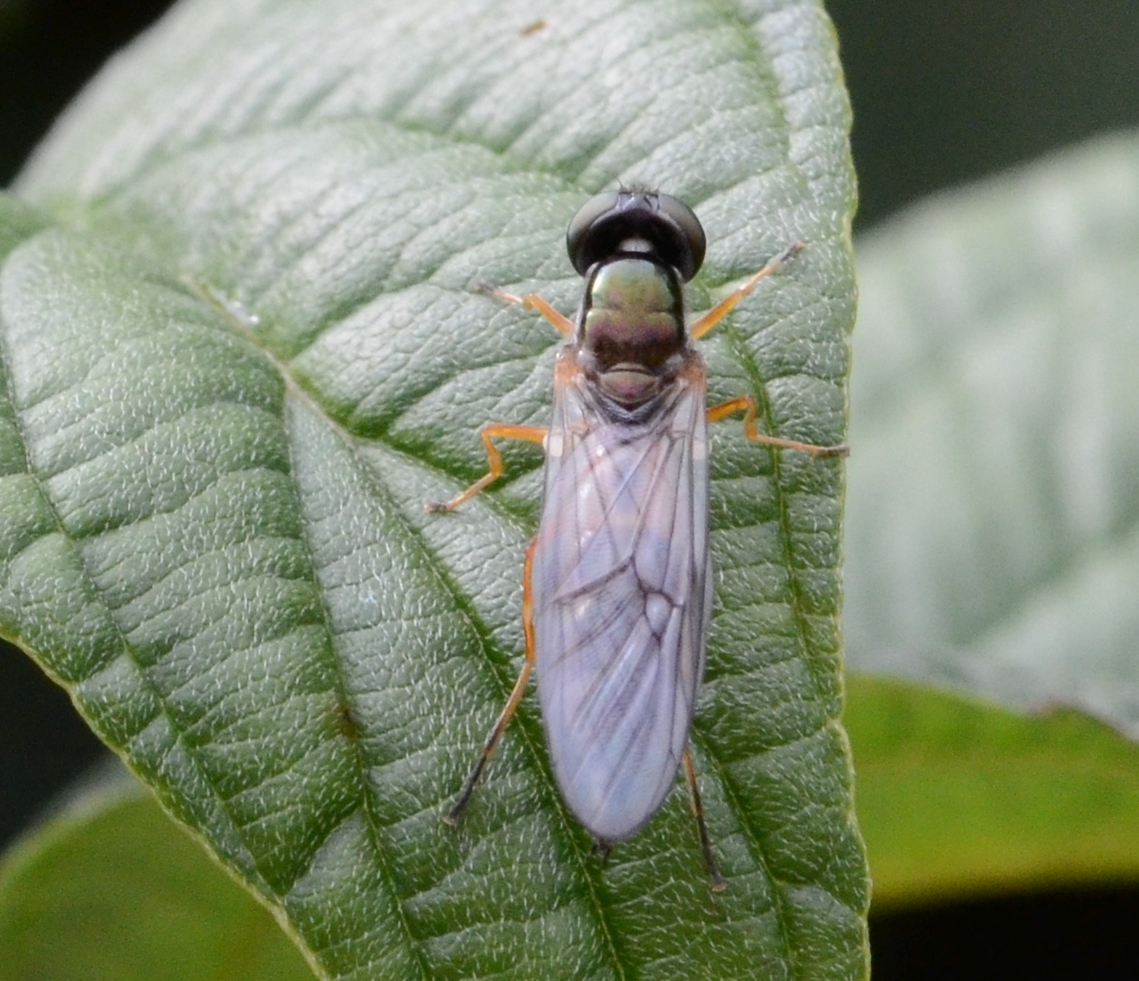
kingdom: Animalia
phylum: Arthropoda
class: Insecta
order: Diptera
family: Stratiomyidae
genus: Sargus
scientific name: Sargus bipunctatus
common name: Twin-spot centurion
